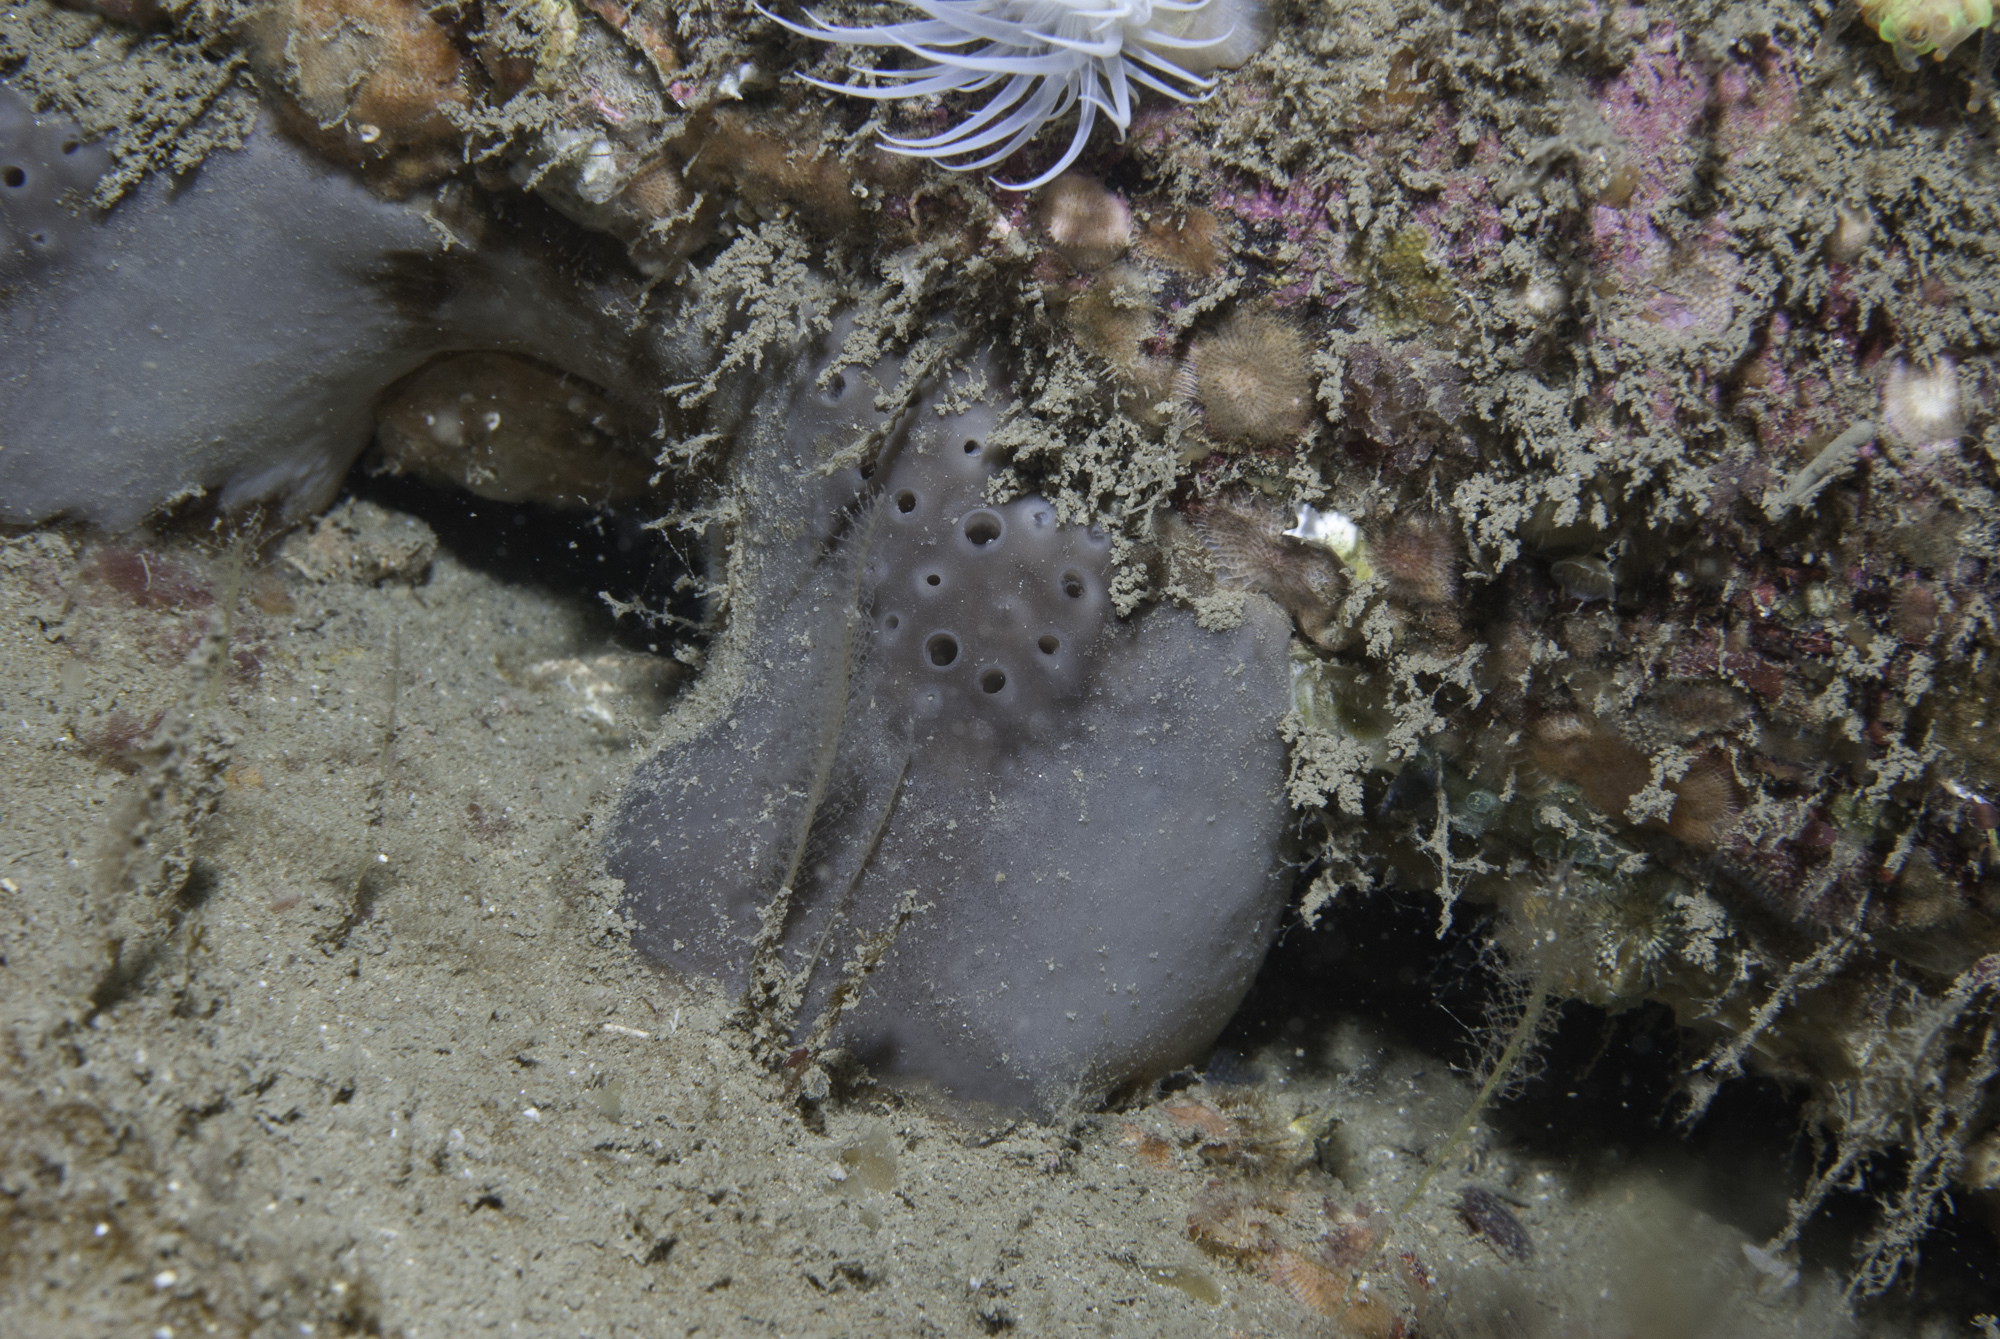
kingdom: Animalia
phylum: Porifera
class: Demospongiae
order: Tetractinellida
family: Geodiidae
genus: Pachymatisma
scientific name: Pachymatisma johnstonia
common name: Elephant ear sponge
